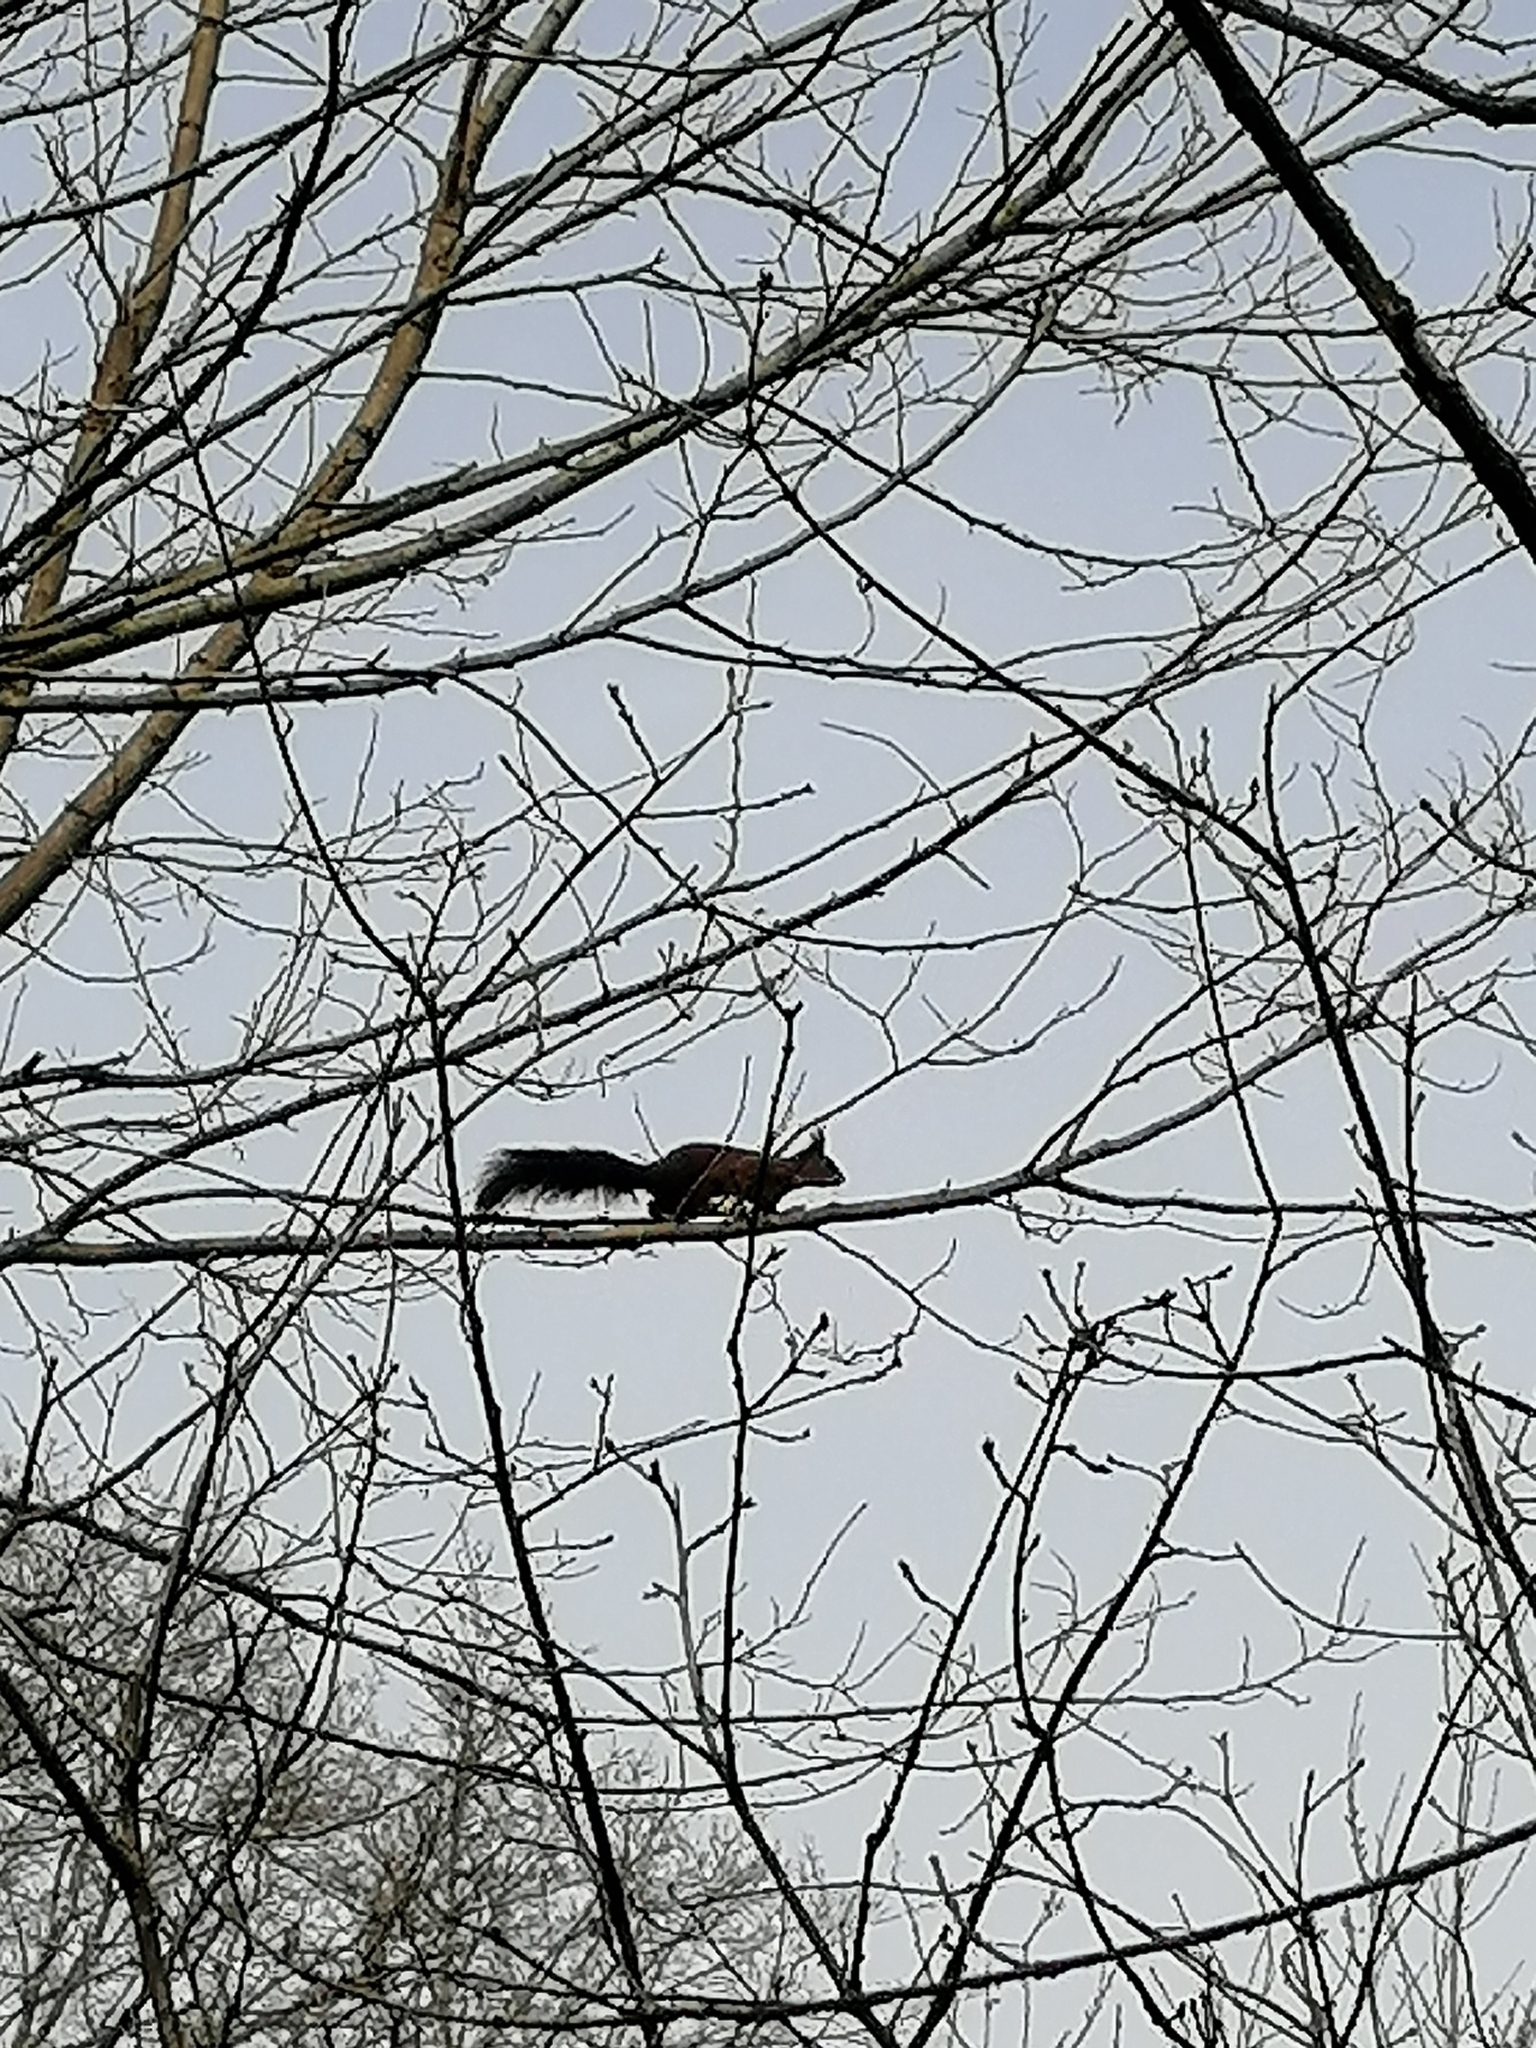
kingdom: Animalia
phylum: Chordata
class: Mammalia
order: Rodentia
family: Sciuridae
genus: Sciurus
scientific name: Sciurus vulgaris
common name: Eurasian red squirrel
